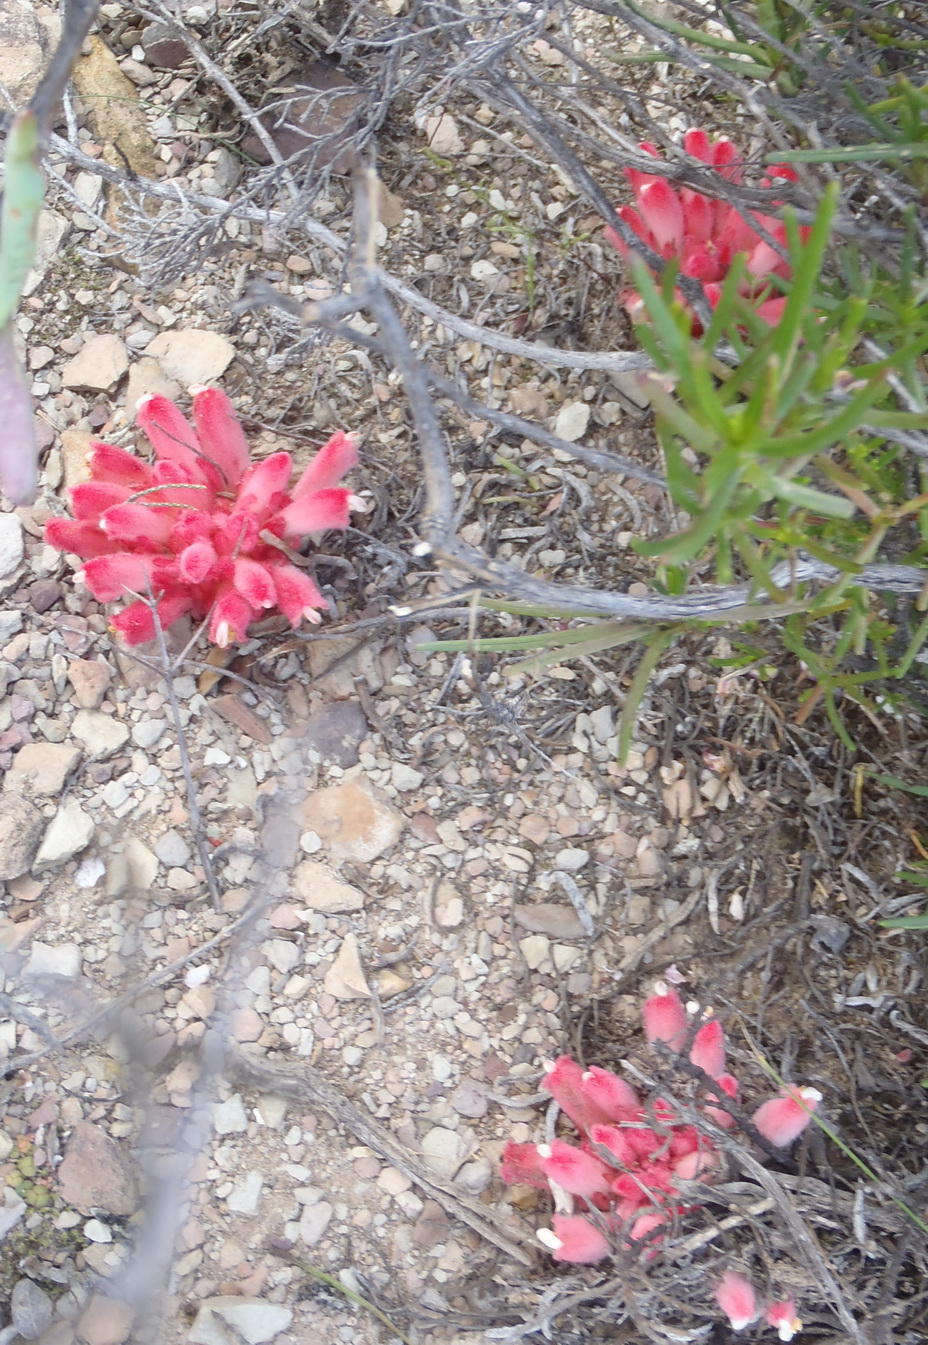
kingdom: Plantae
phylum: Tracheophyta
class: Magnoliopsida
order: Lamiales
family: Orobanchaceae
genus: Hyobanche
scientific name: Hyobanche sanguinea
